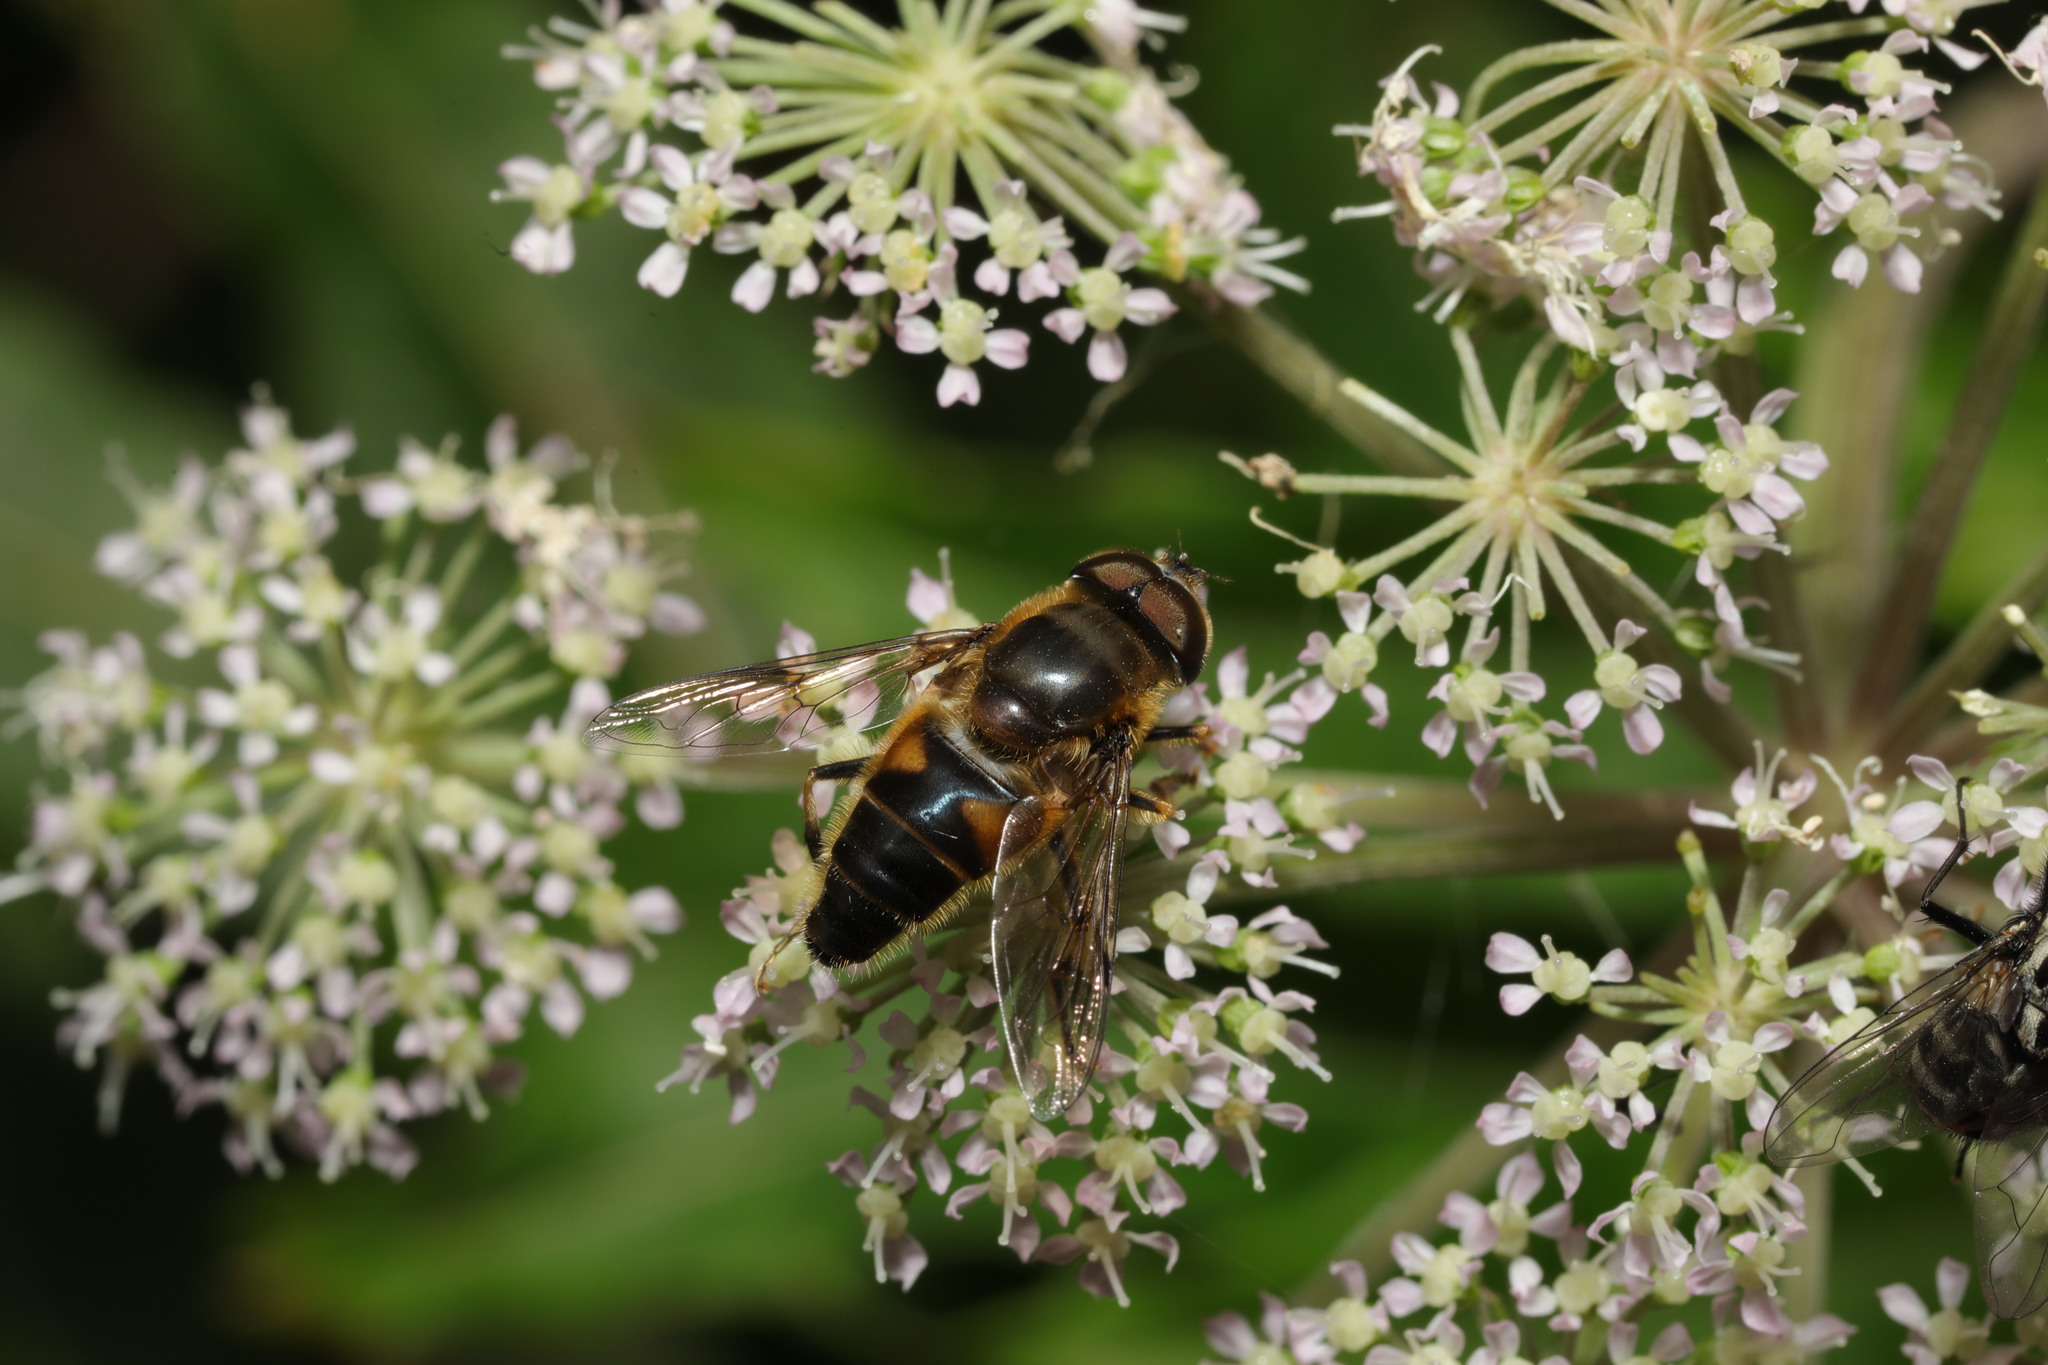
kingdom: Animalia
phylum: Arthropoda
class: Insecta
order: Diptera
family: Syrphidae
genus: Eristalis
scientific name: Eristalis pertinax
